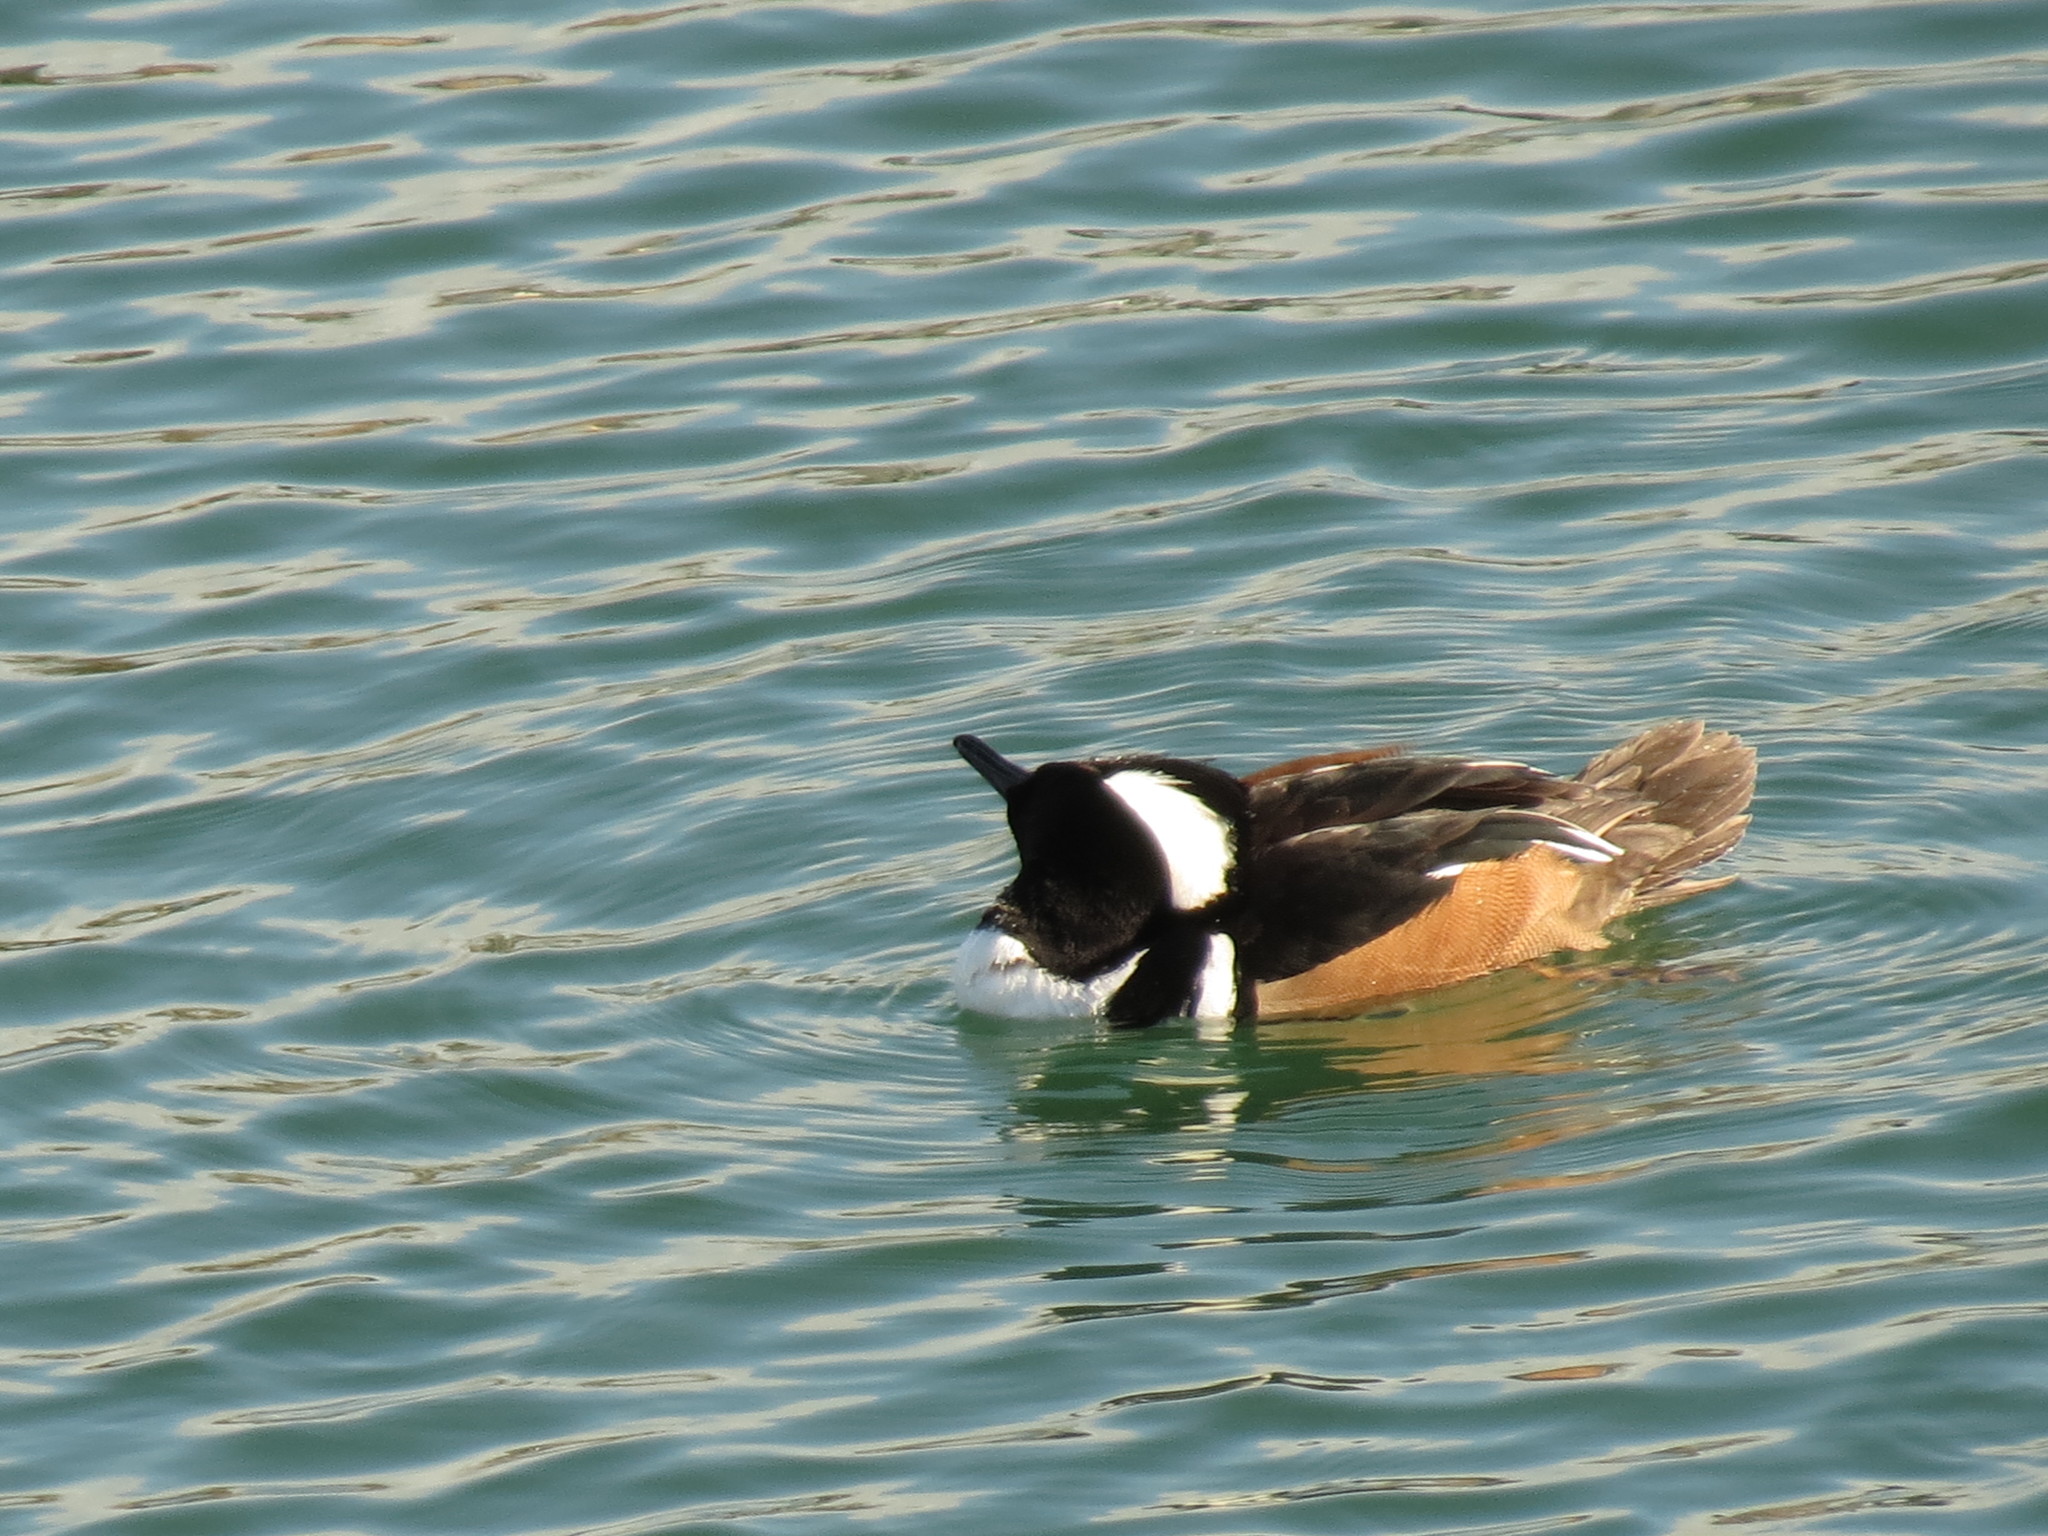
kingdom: Animalia
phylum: Chordata
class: Aves
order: Anseriformes
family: Anatidae
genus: Lophodytes
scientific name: Lophodytes cucullatus
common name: Hooded merganser
